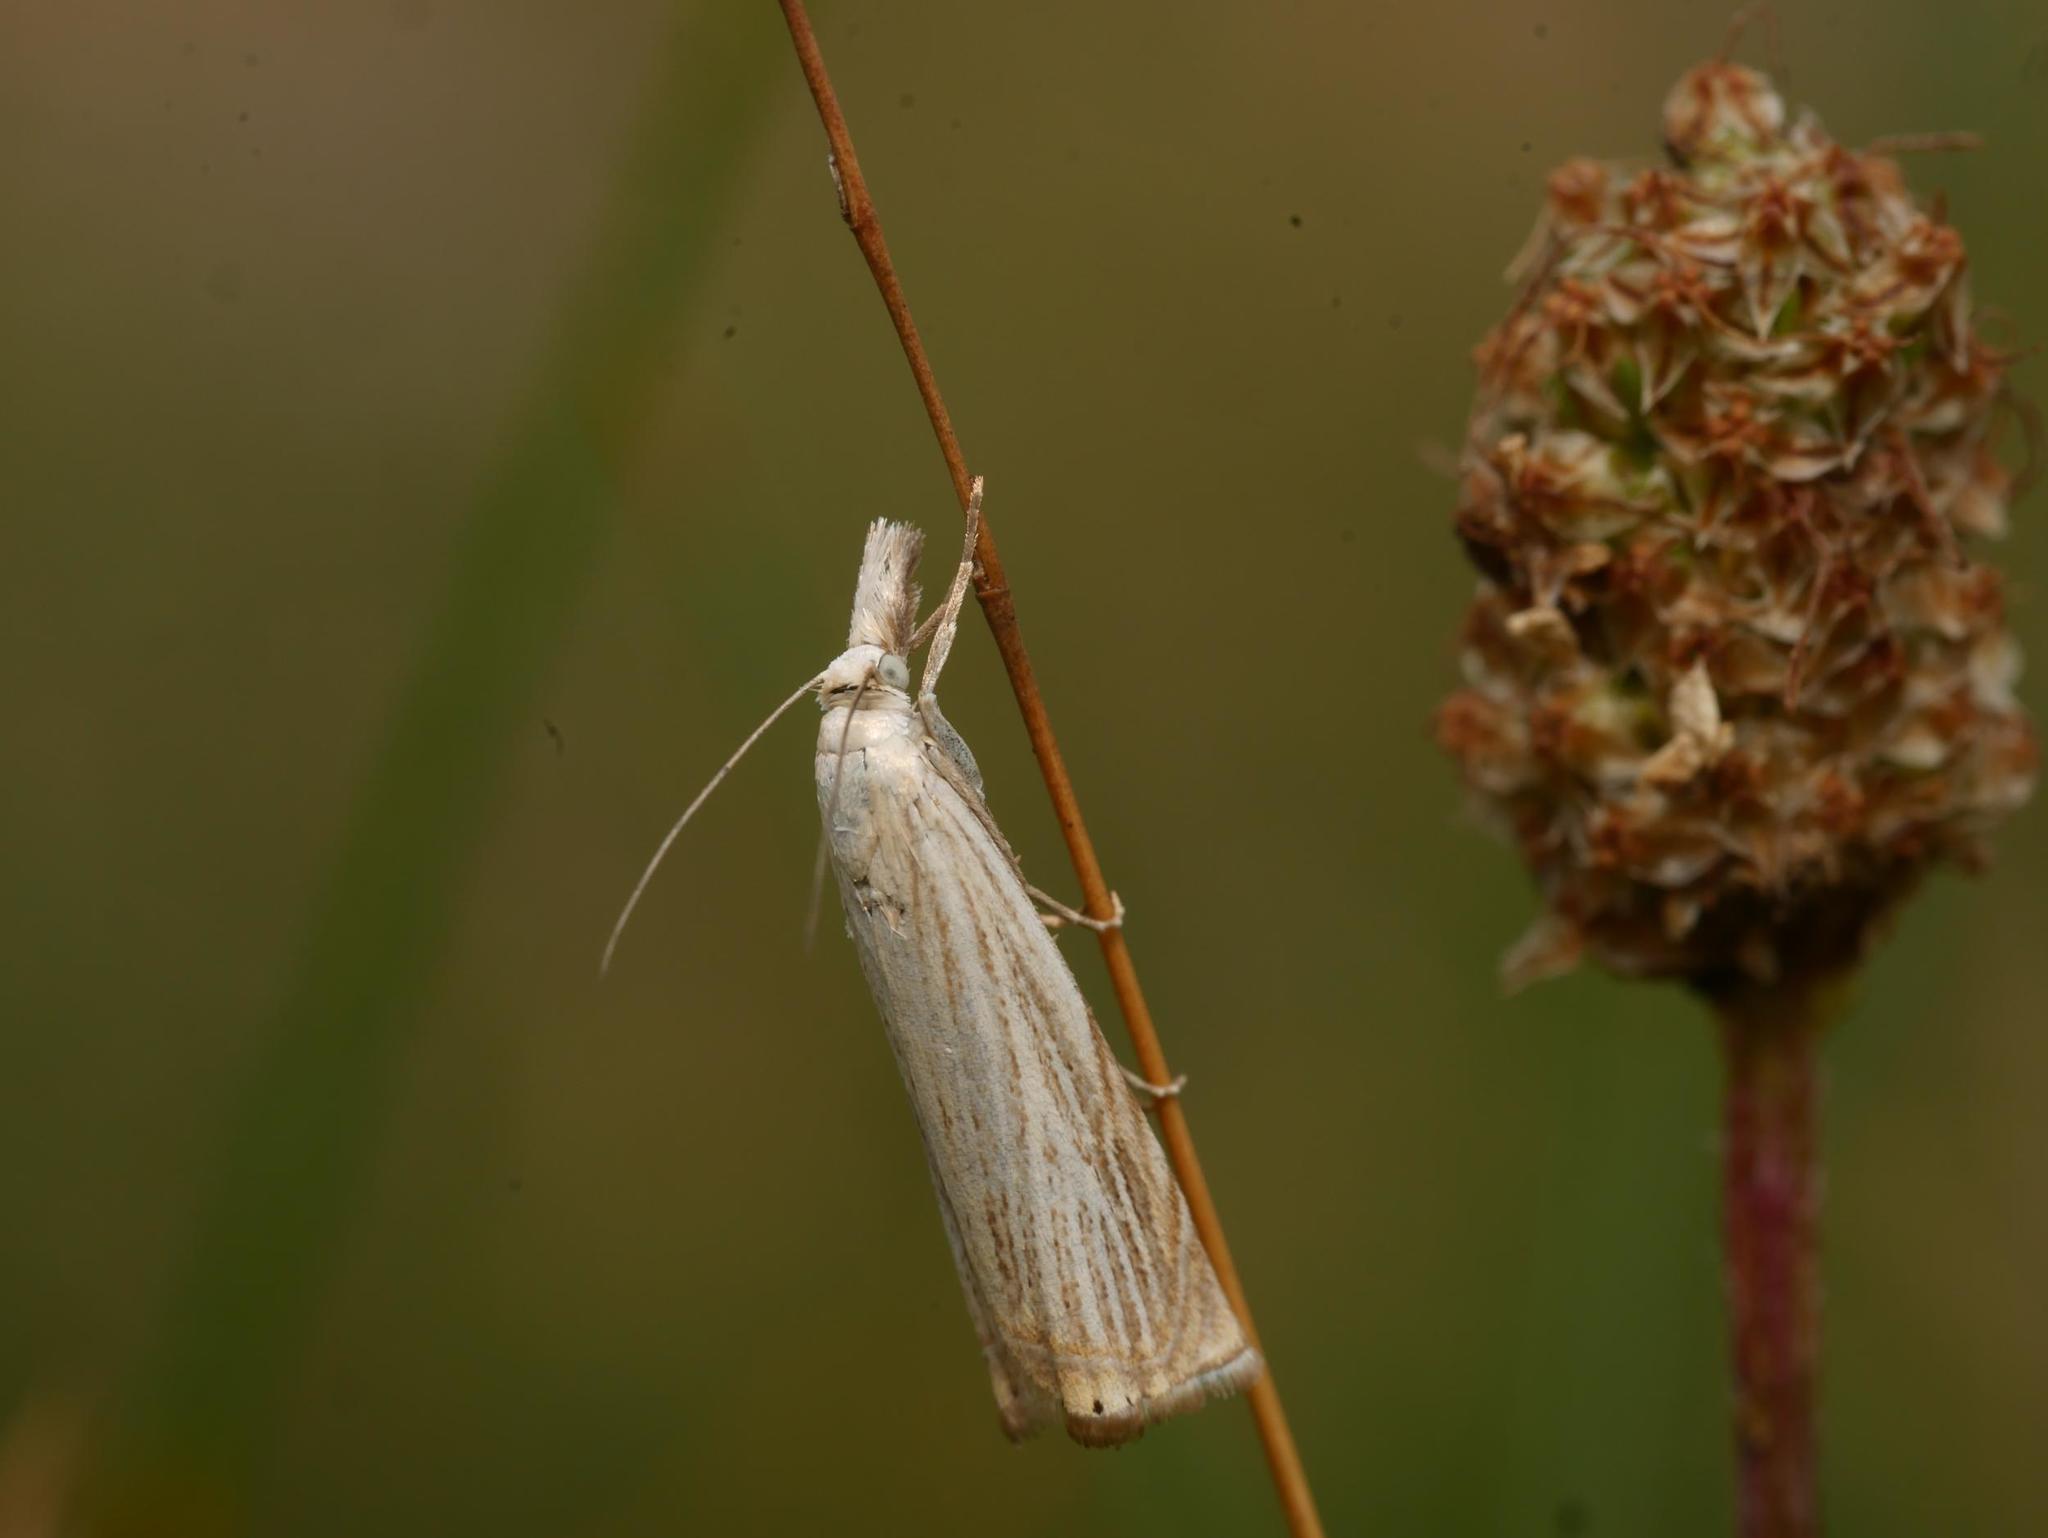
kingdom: Animalia
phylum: Arthropoda
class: Insecta
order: Lepidoptera
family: Crambidae
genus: Agriphila
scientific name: Agriphila straminella
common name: Straw grass-veneer
